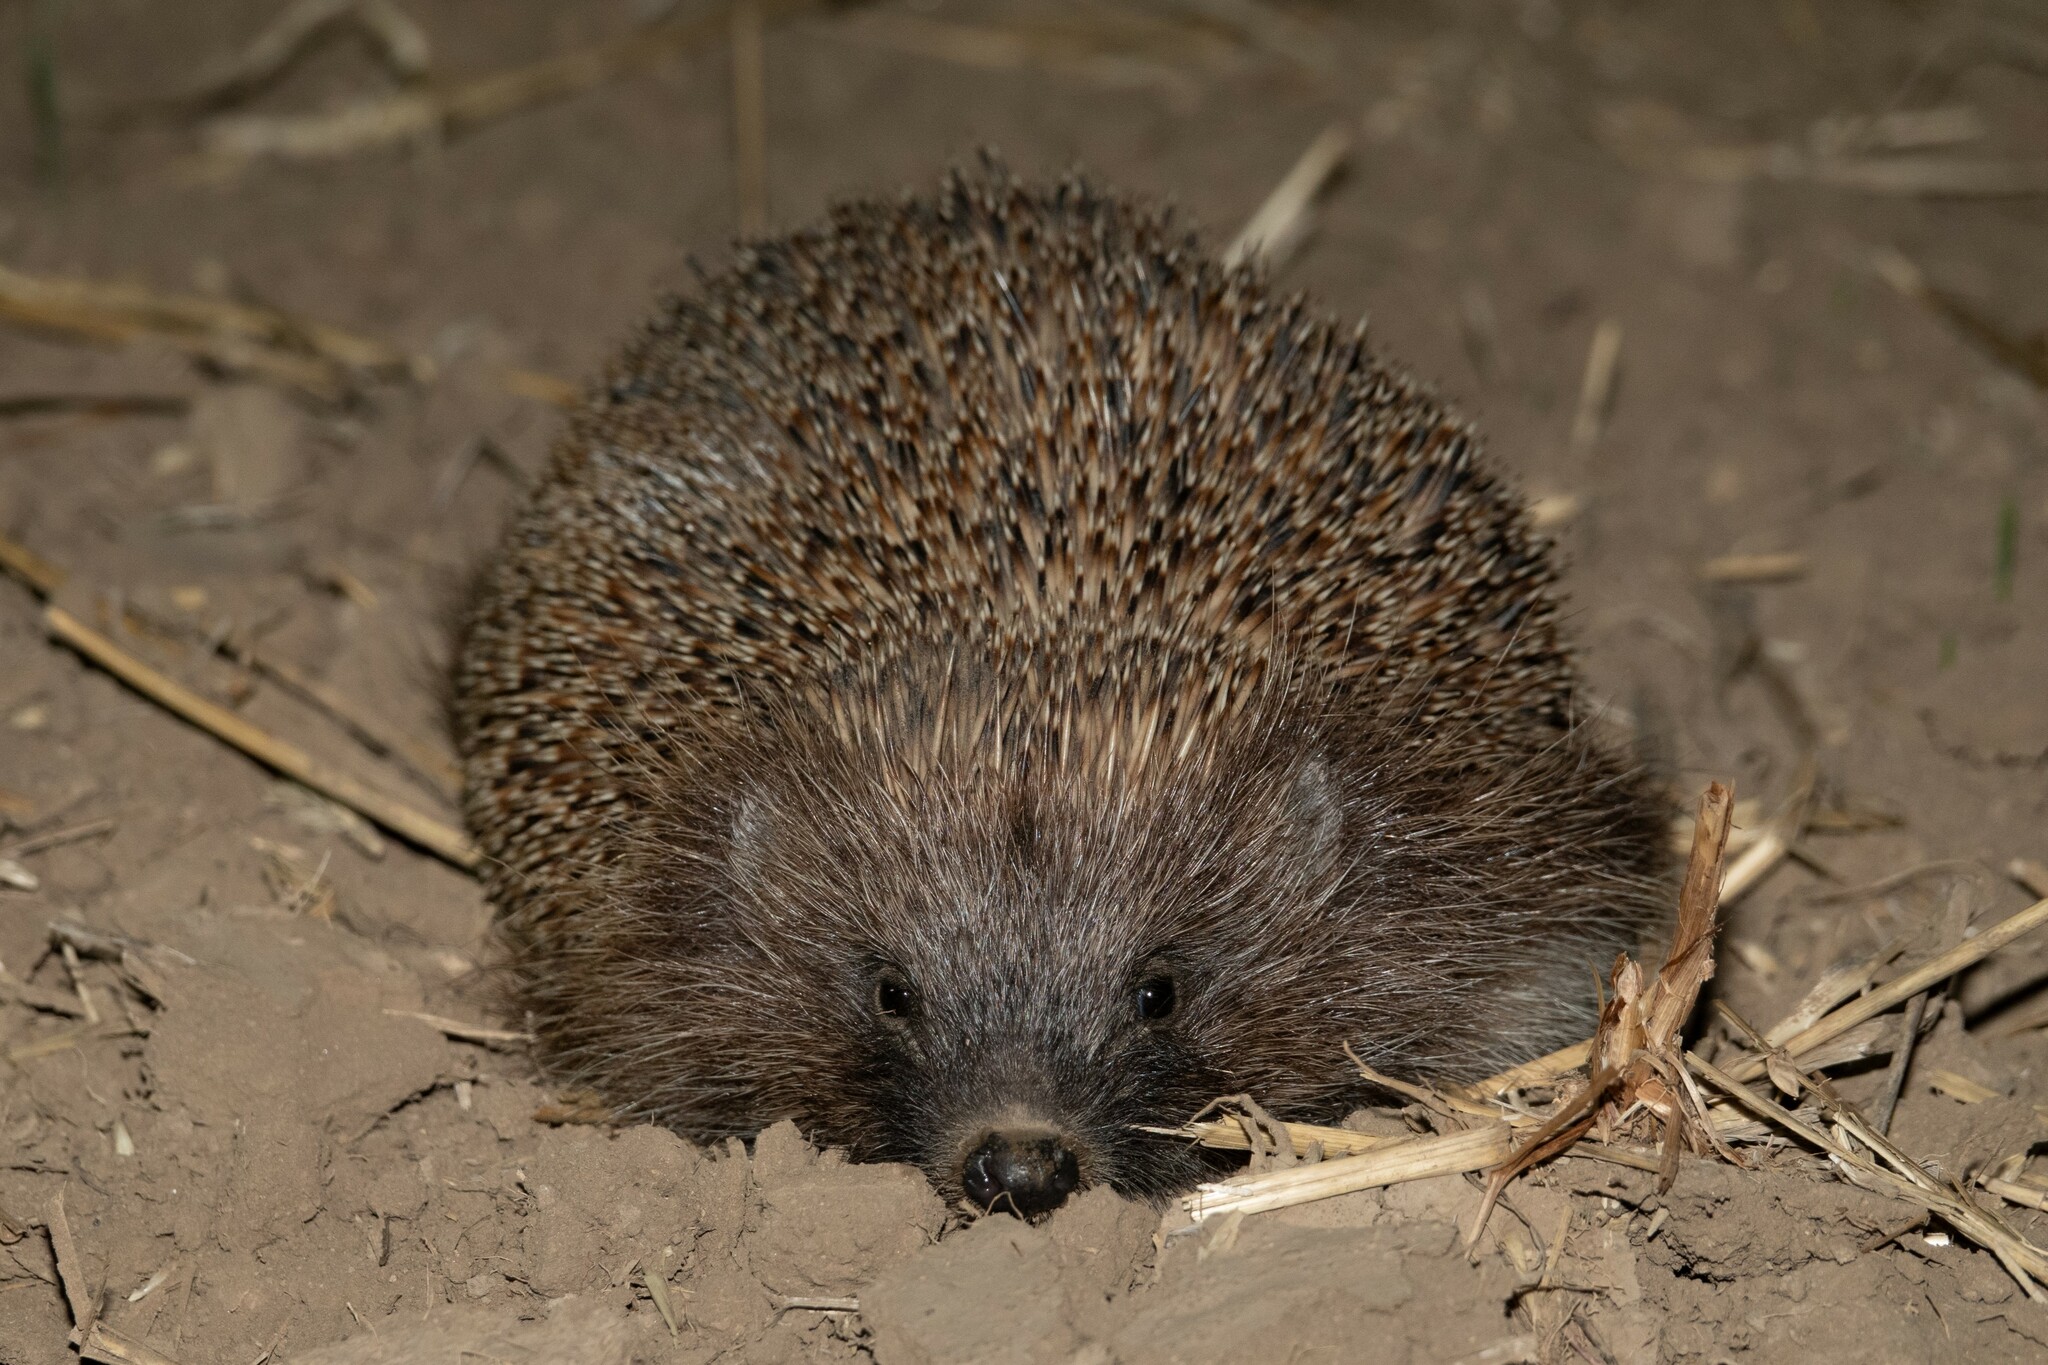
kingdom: Animalia
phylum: Chordata
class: Mammalia
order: Erinaceomorpha
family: Erinaceidae
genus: Erinaceus
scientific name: Erinaceus roumanicus
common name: Northern white-breasted hedgehog
